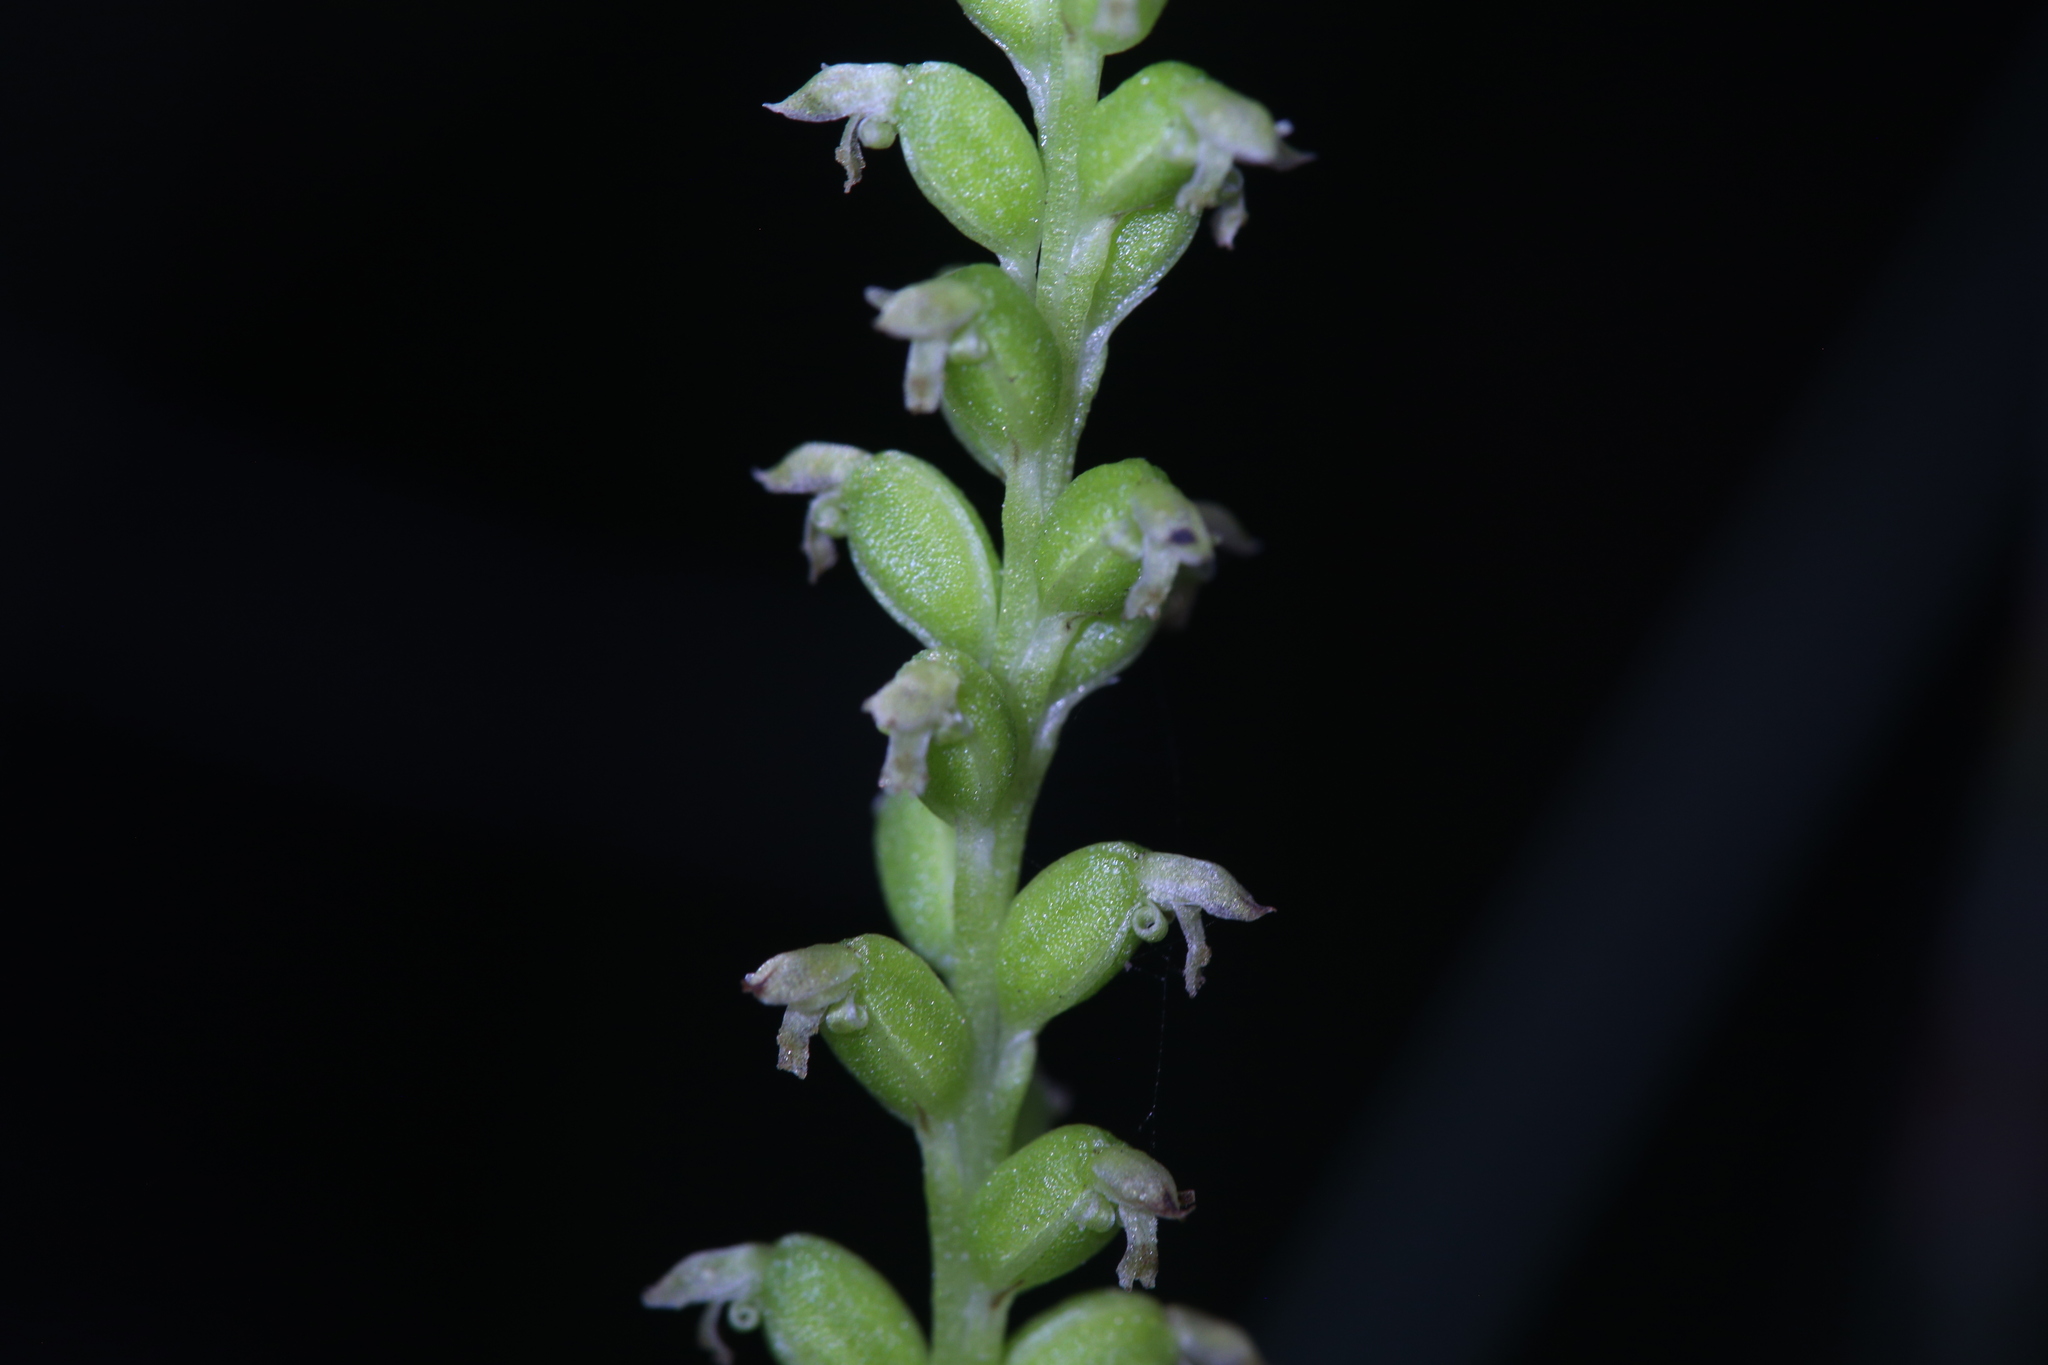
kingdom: Plantae
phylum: Tracheophyta
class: Liliopsida
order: Asparagales
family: Orchidaceae
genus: Microtis
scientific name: Microtis quadrata
